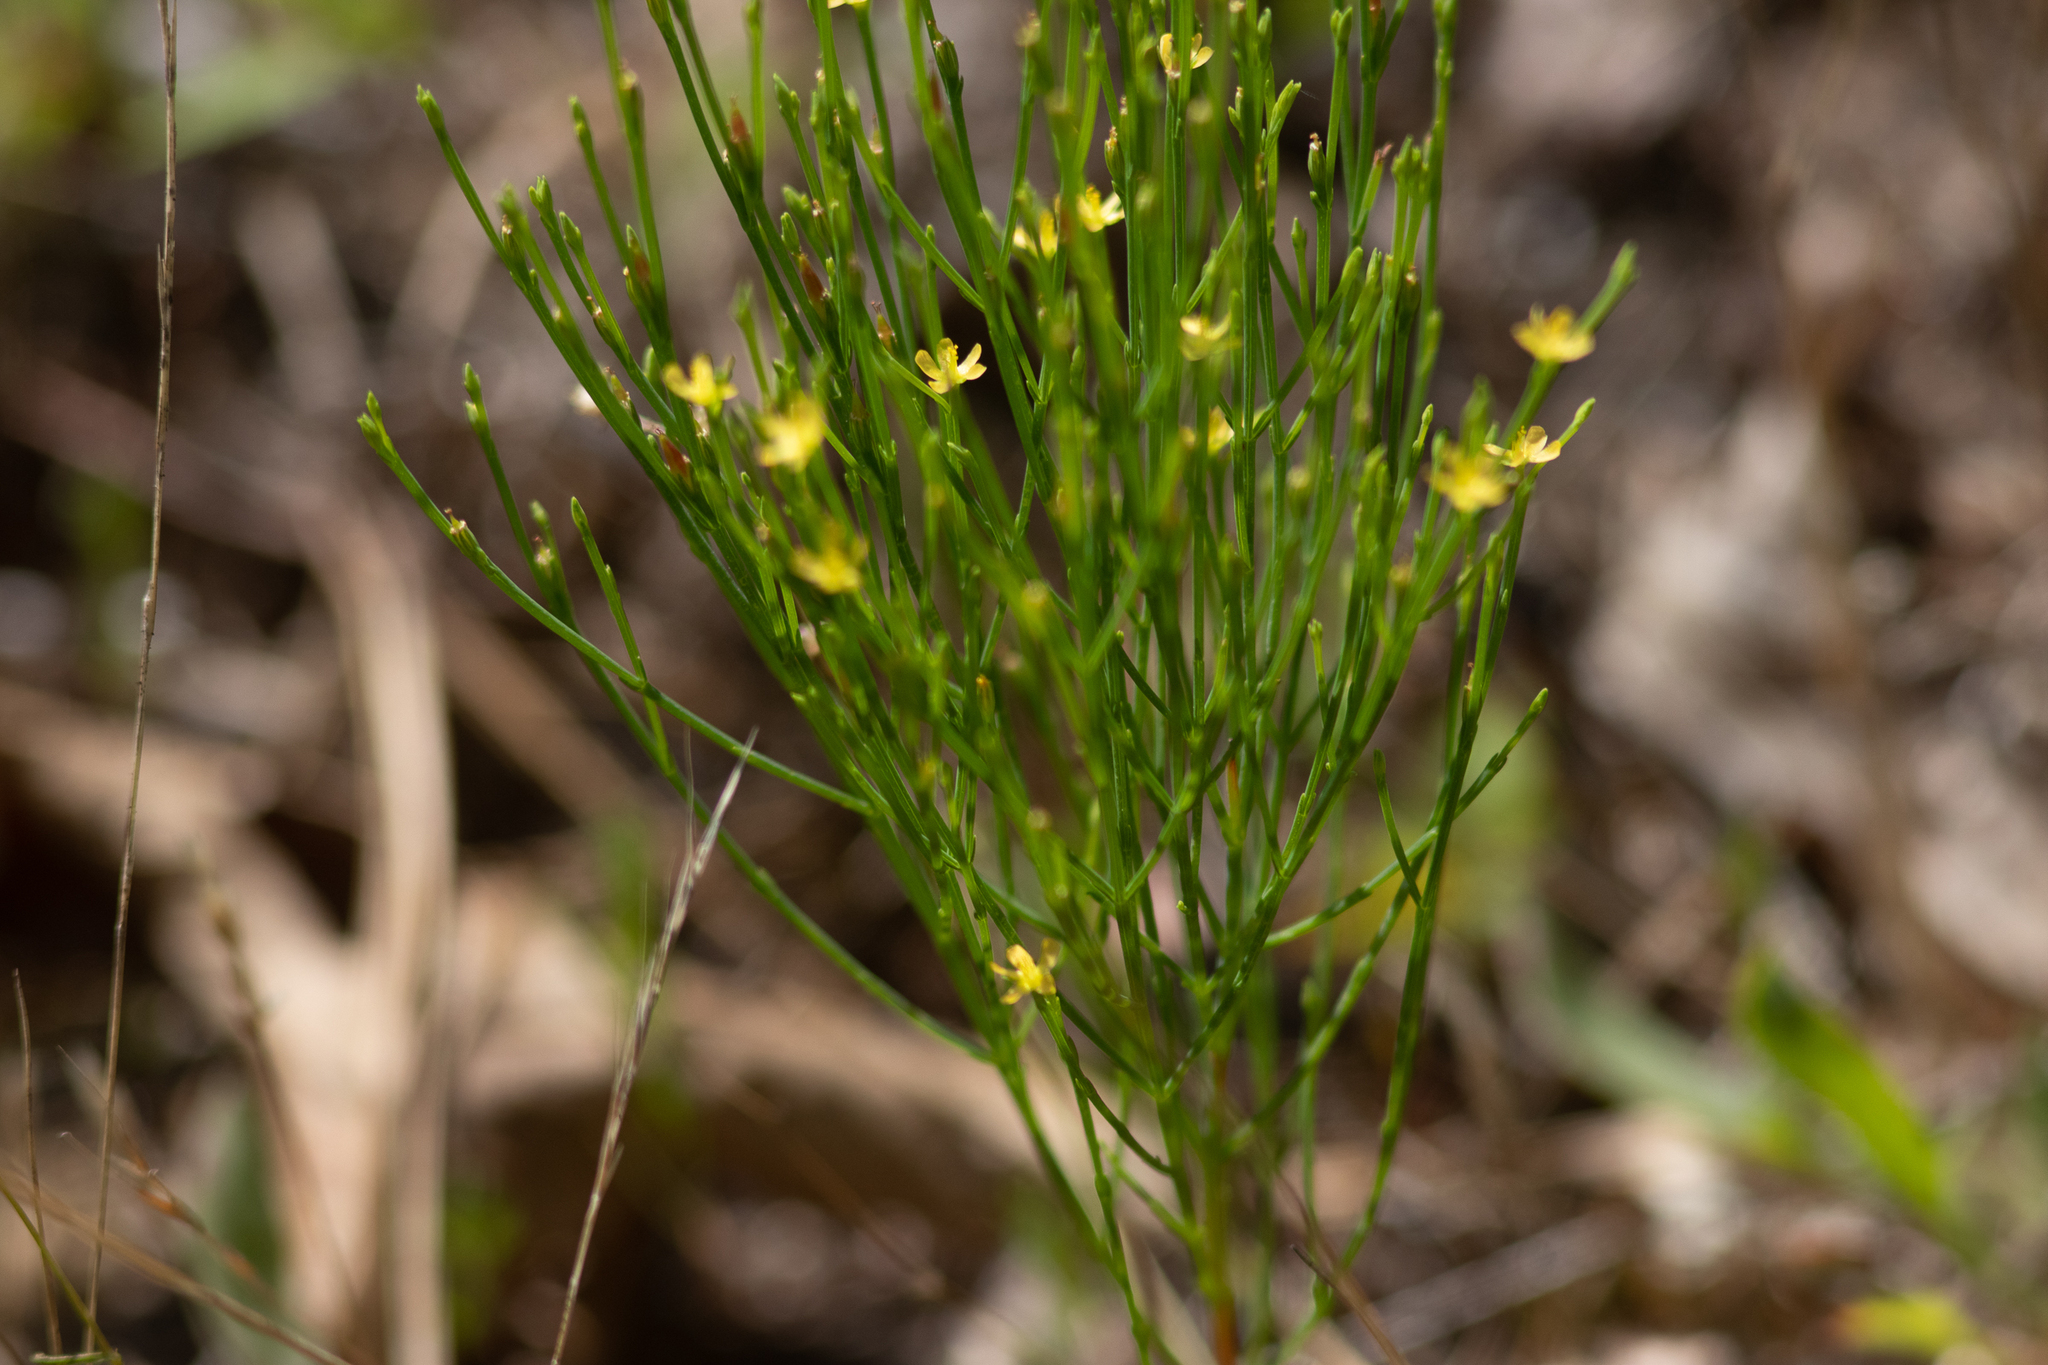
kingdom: Plantae
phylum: Tracheophyta
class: Magnoliopsida
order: Malpighiales
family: Hypericaceae
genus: Hypericum
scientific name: Hypericum gentianoides
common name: Gentian-leaved st. john's-wort
